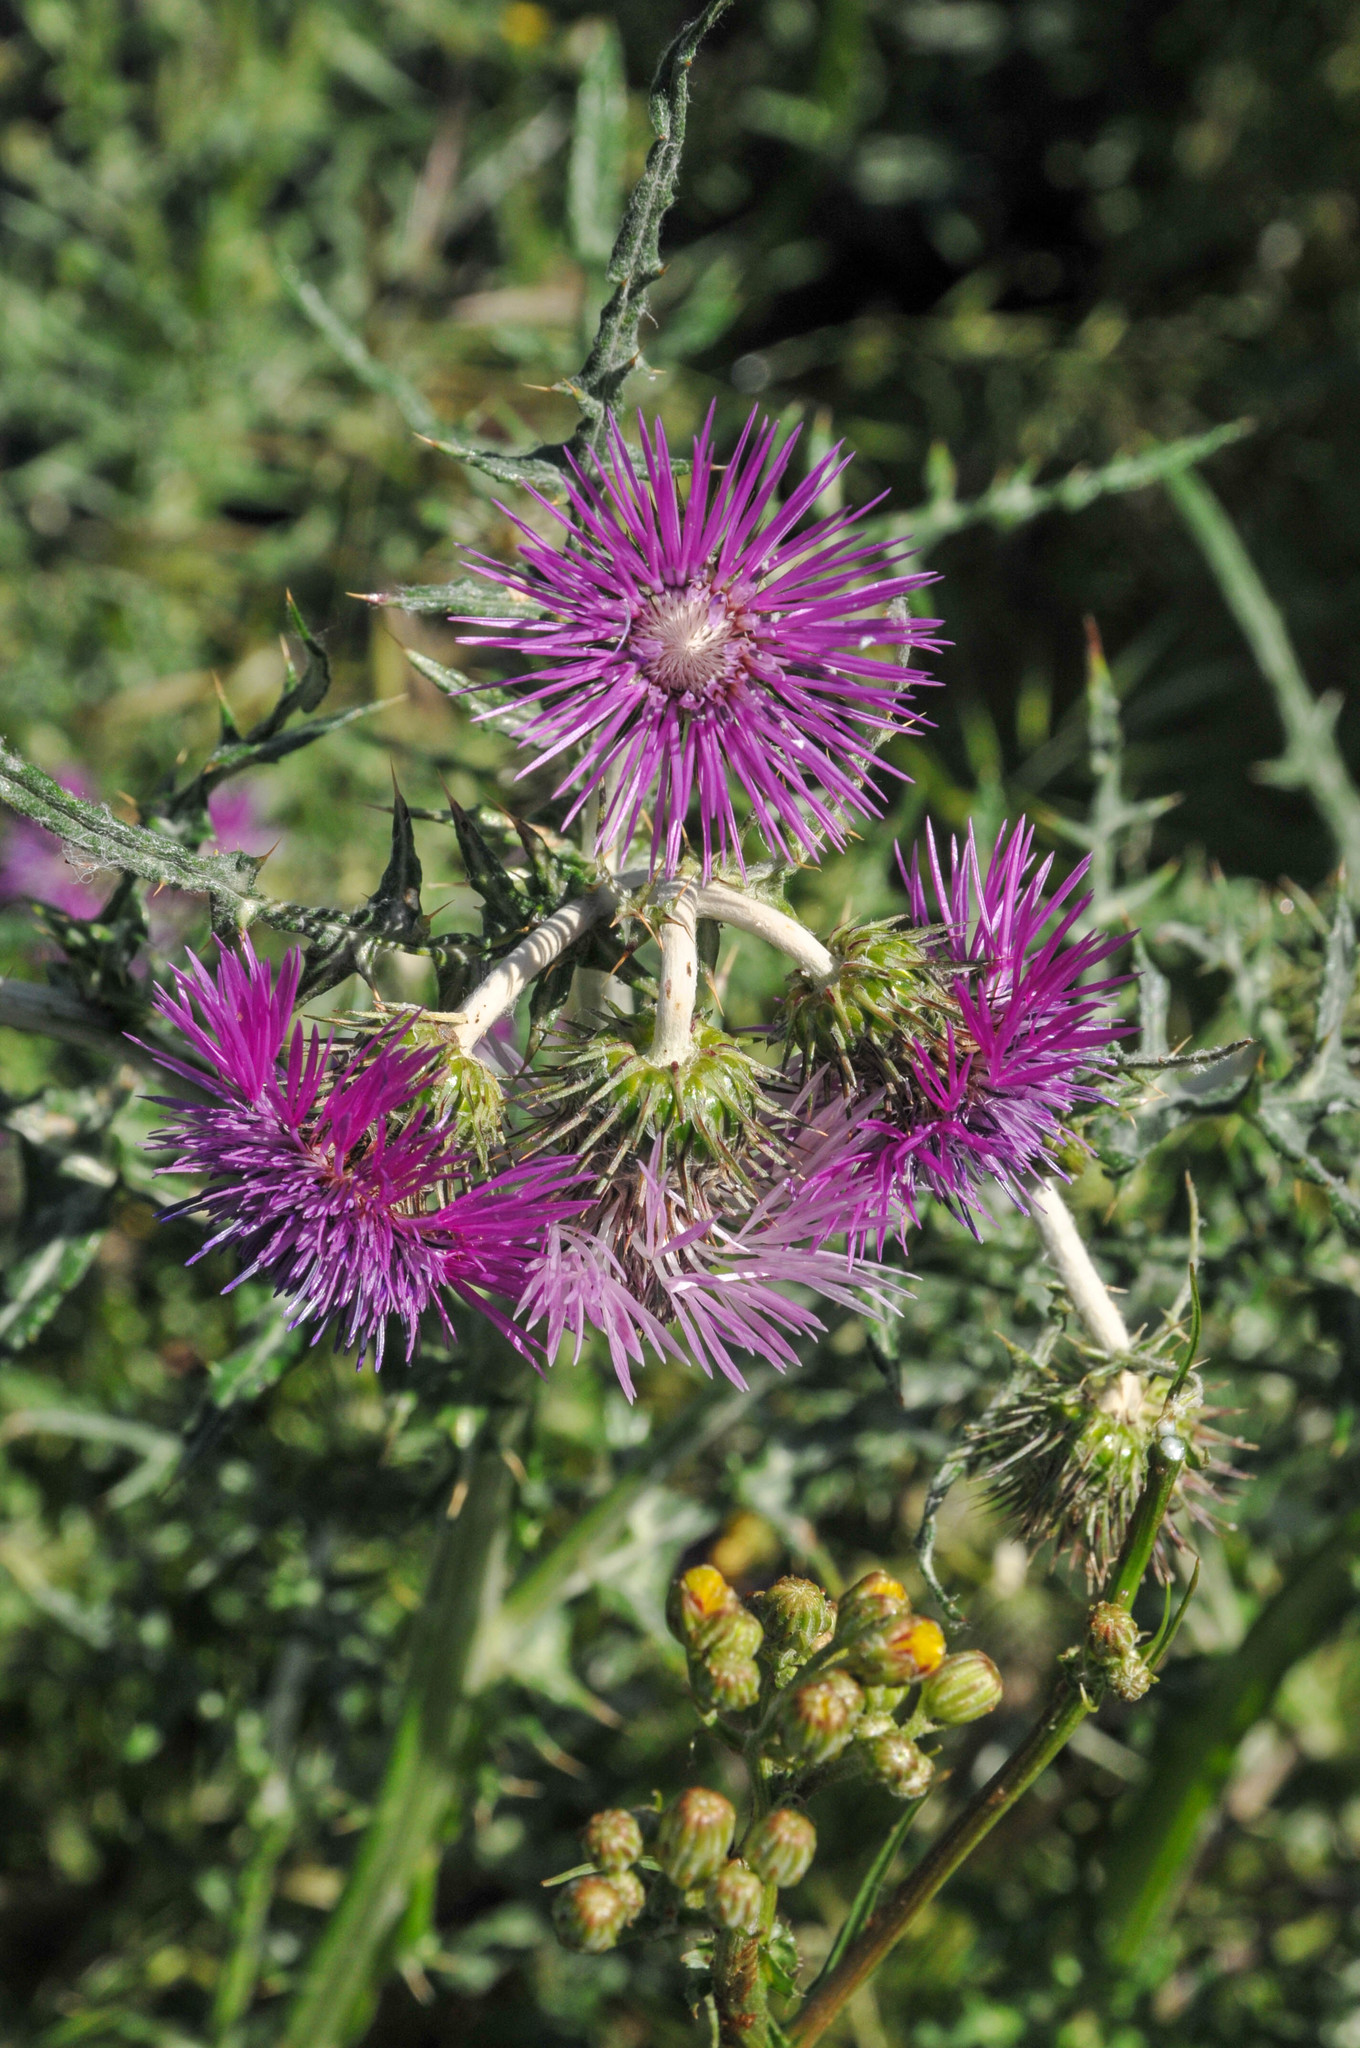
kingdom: Plantae
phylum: Tracheophyta
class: Magnoliopsida
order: Asterales
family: Asteraceae
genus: Galactites
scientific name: Galactites tomentosa
